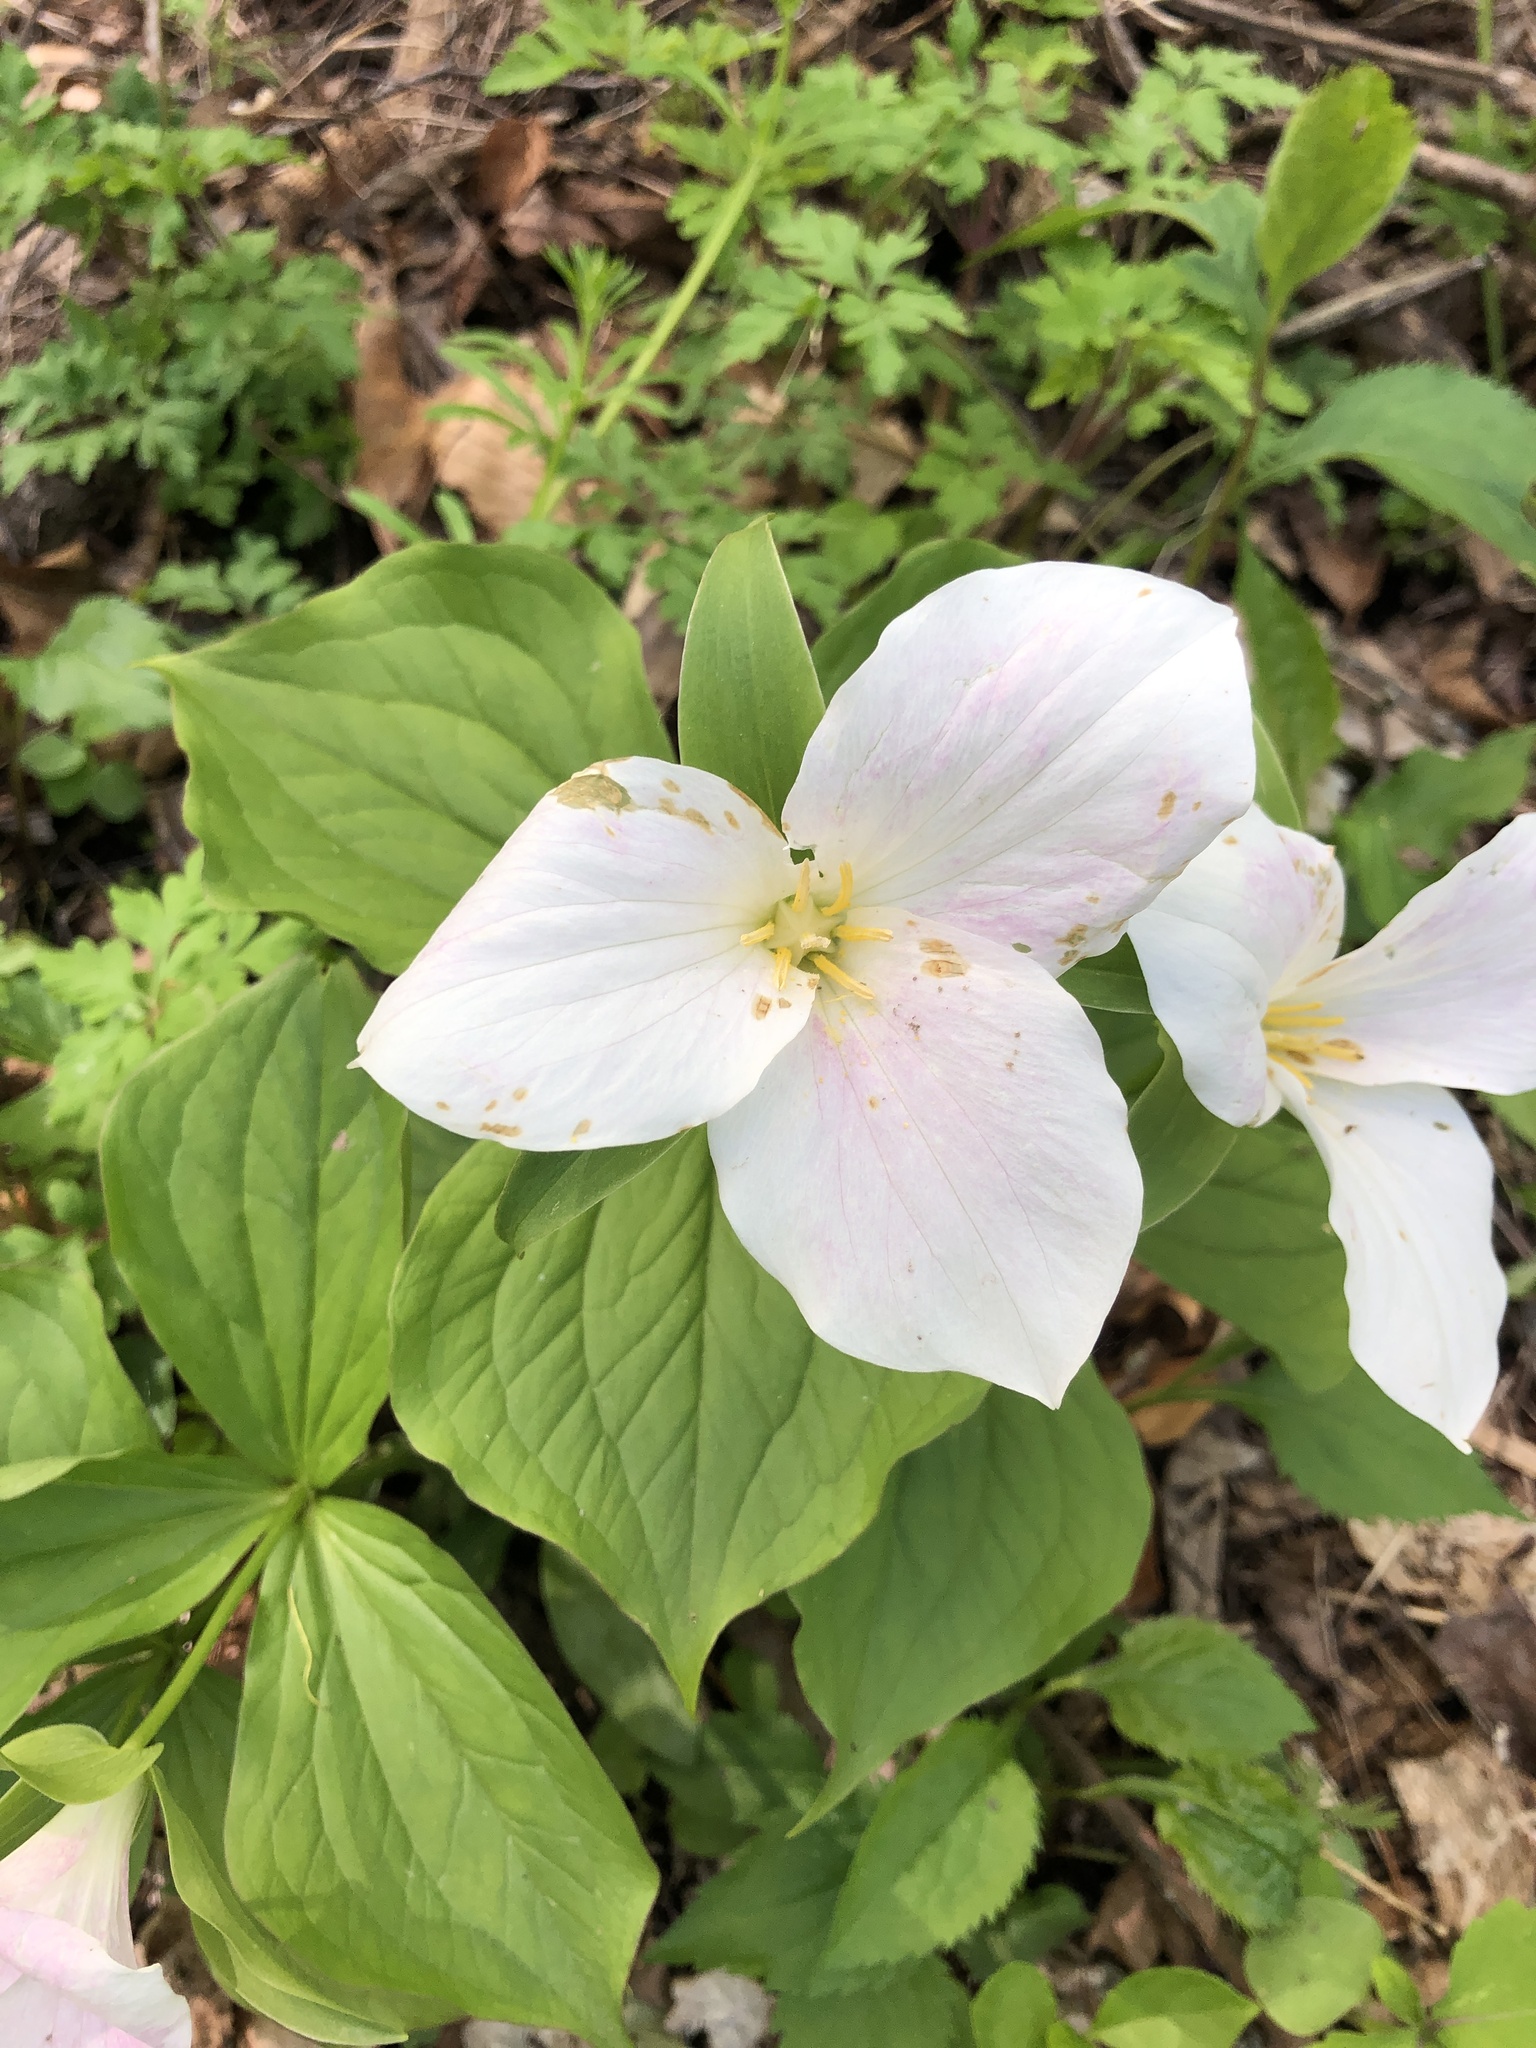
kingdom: Plantae
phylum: Tracheophyta
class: Liliopsida
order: Liliales
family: Melanthiaceae
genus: Trillium
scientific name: Trillium grandiflorum
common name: Great white trillium
